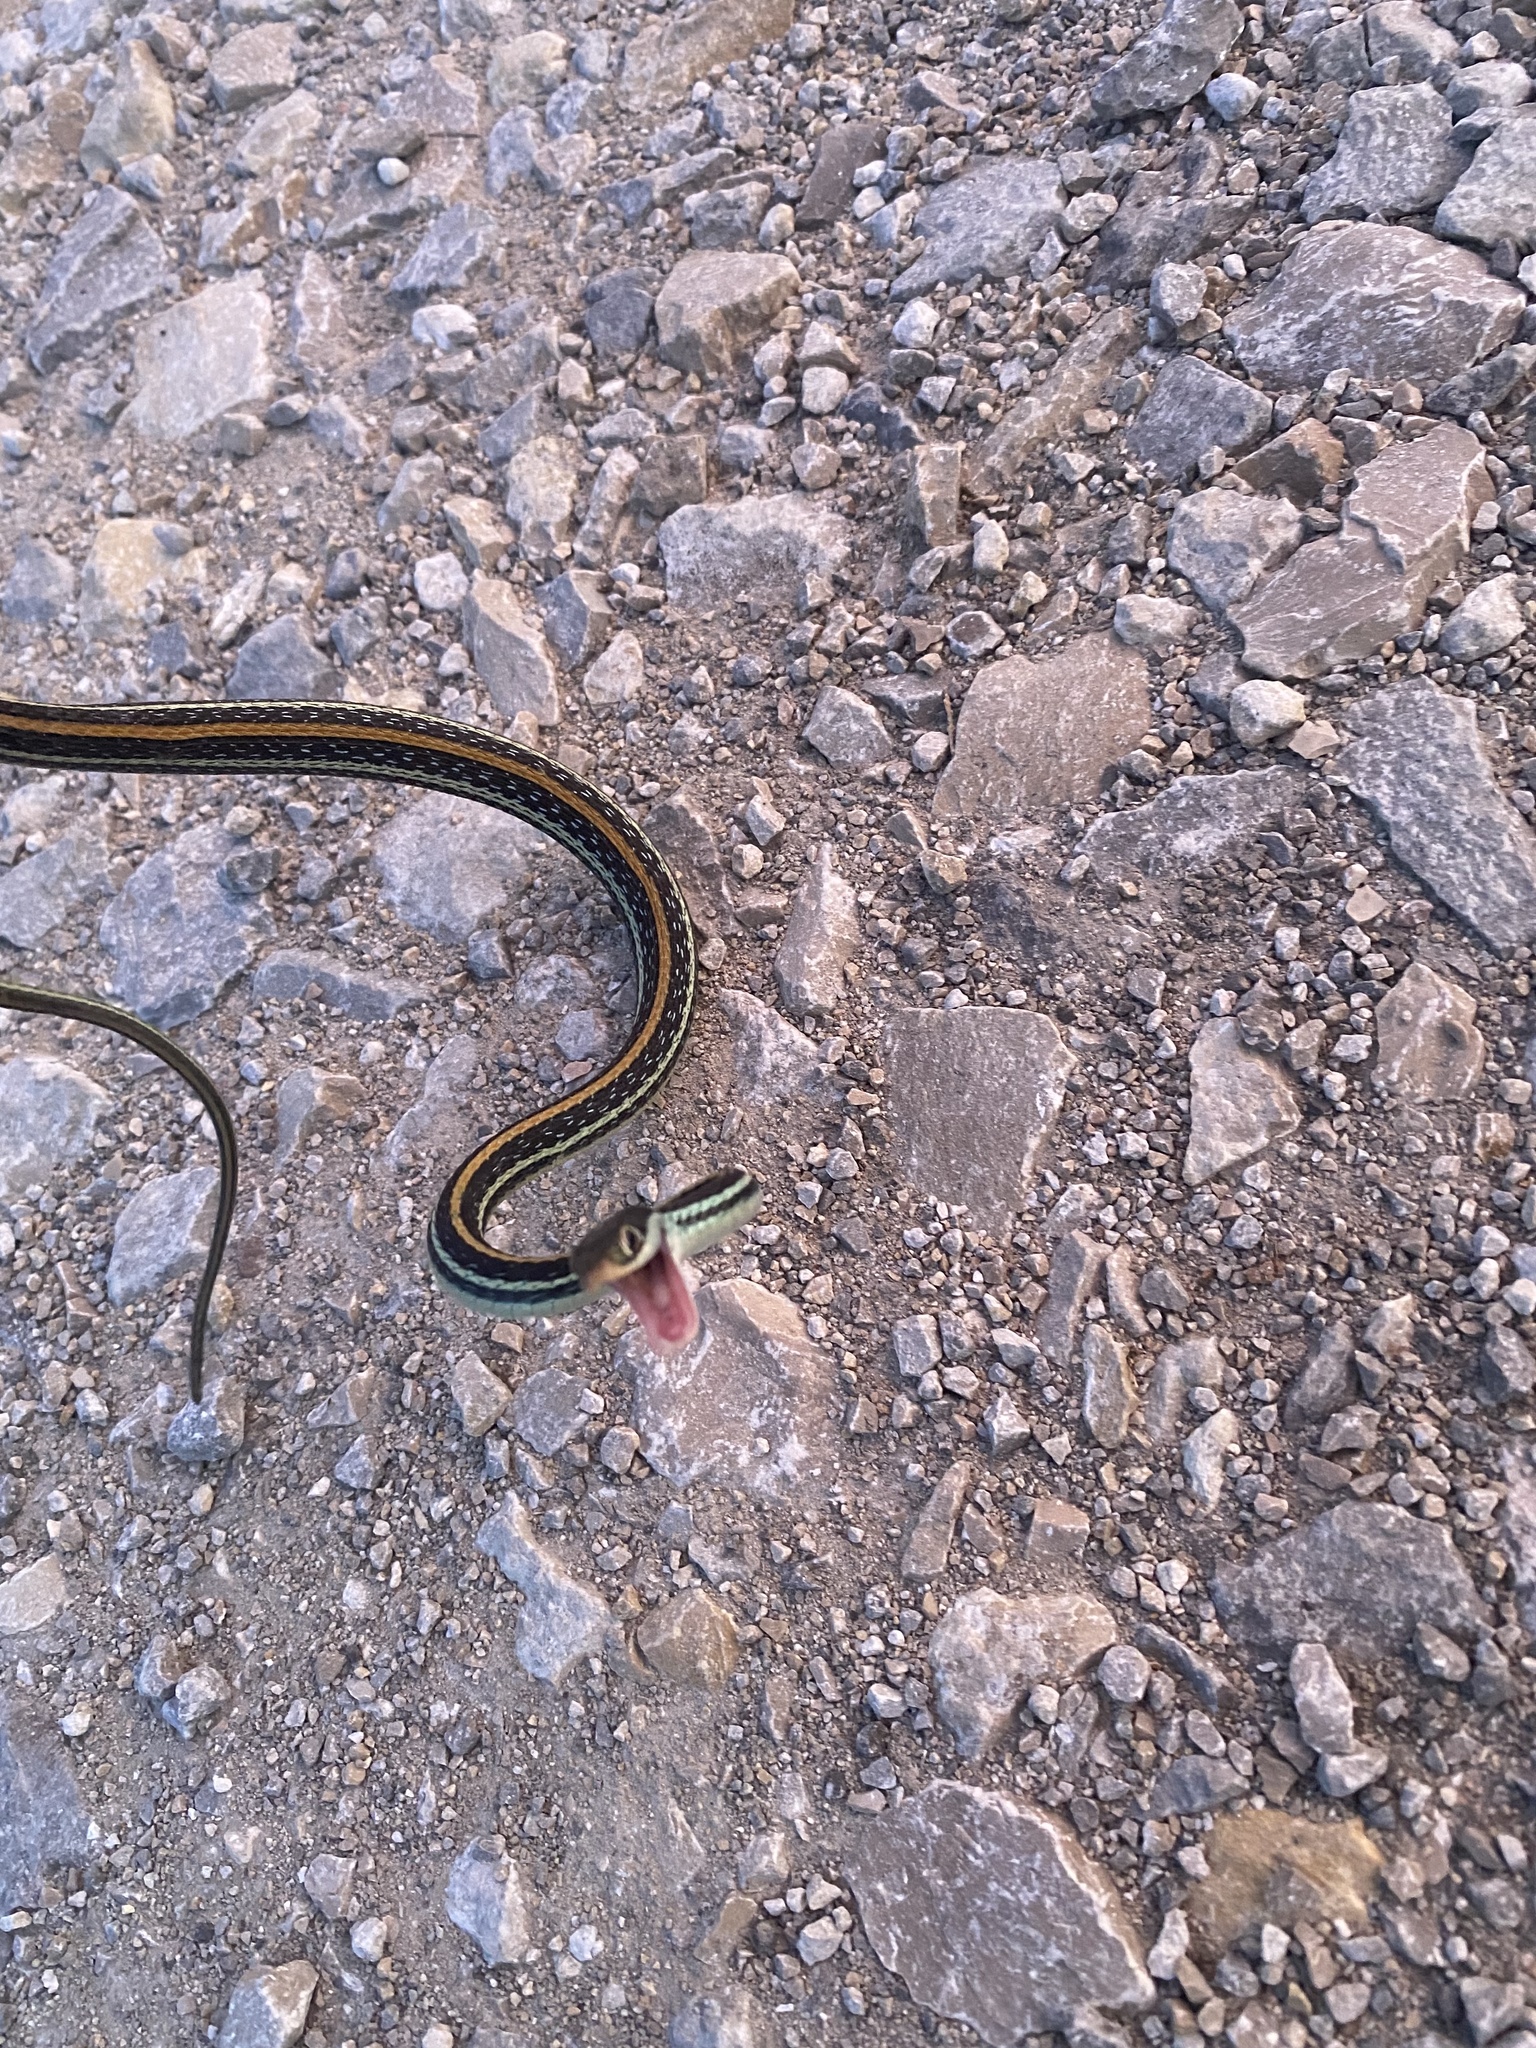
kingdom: Animalia
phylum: Chordata
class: Squamata
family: Colubridae
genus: Thamnophis
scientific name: Thamnophis proximus
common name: Western ribbon snake
